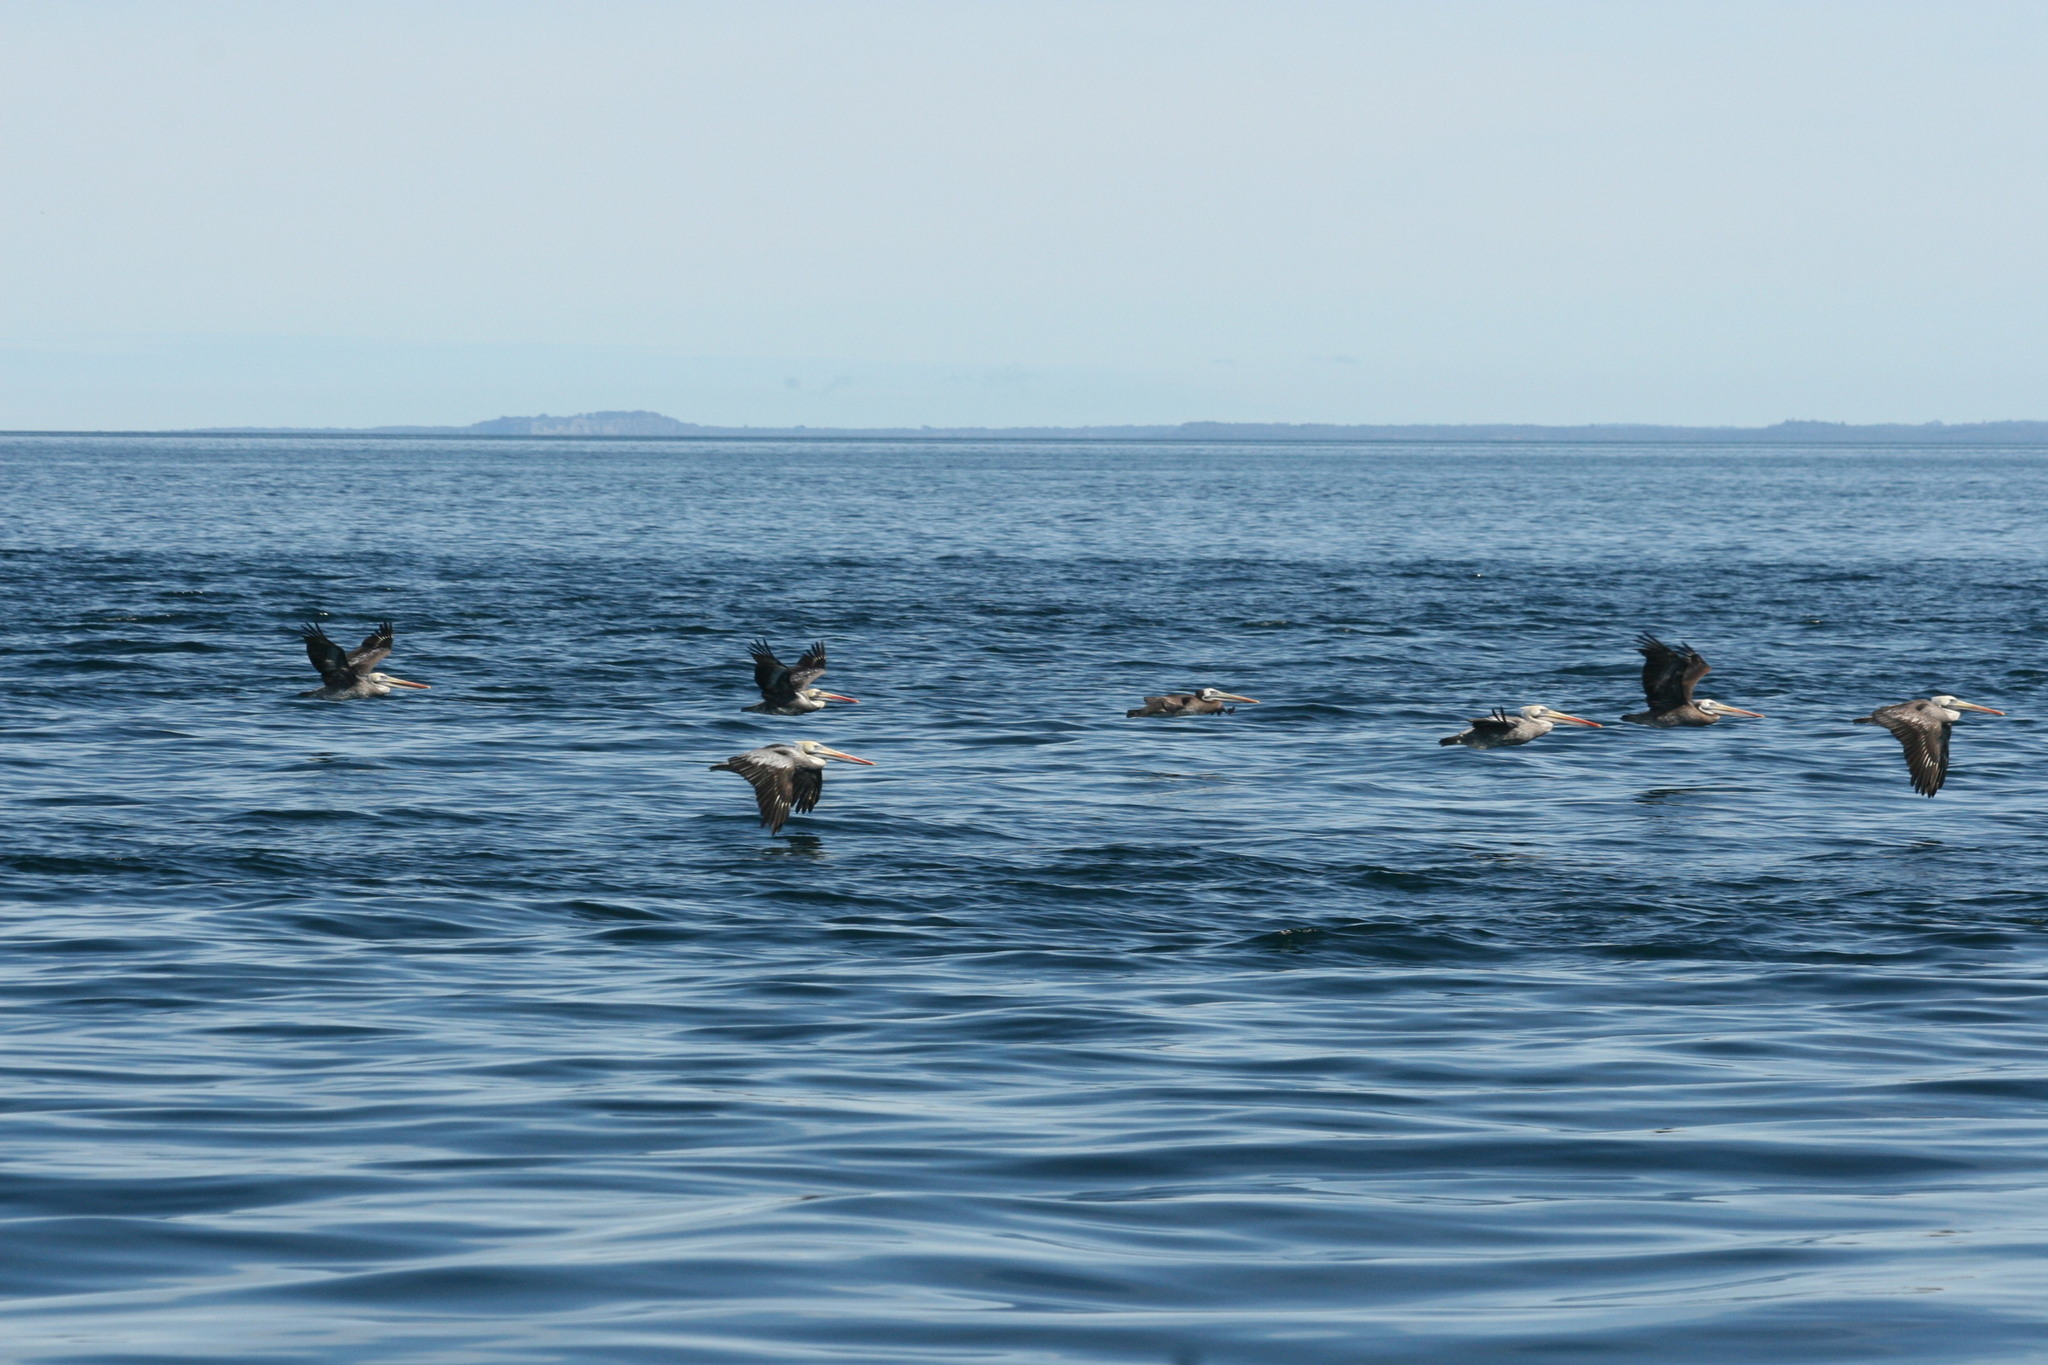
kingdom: Animalia
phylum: Chordata
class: Aves
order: Pelecaniformes
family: Pelecanidae
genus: Pelecanus
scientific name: Pelecanus thagus
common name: Peruvian pelican
